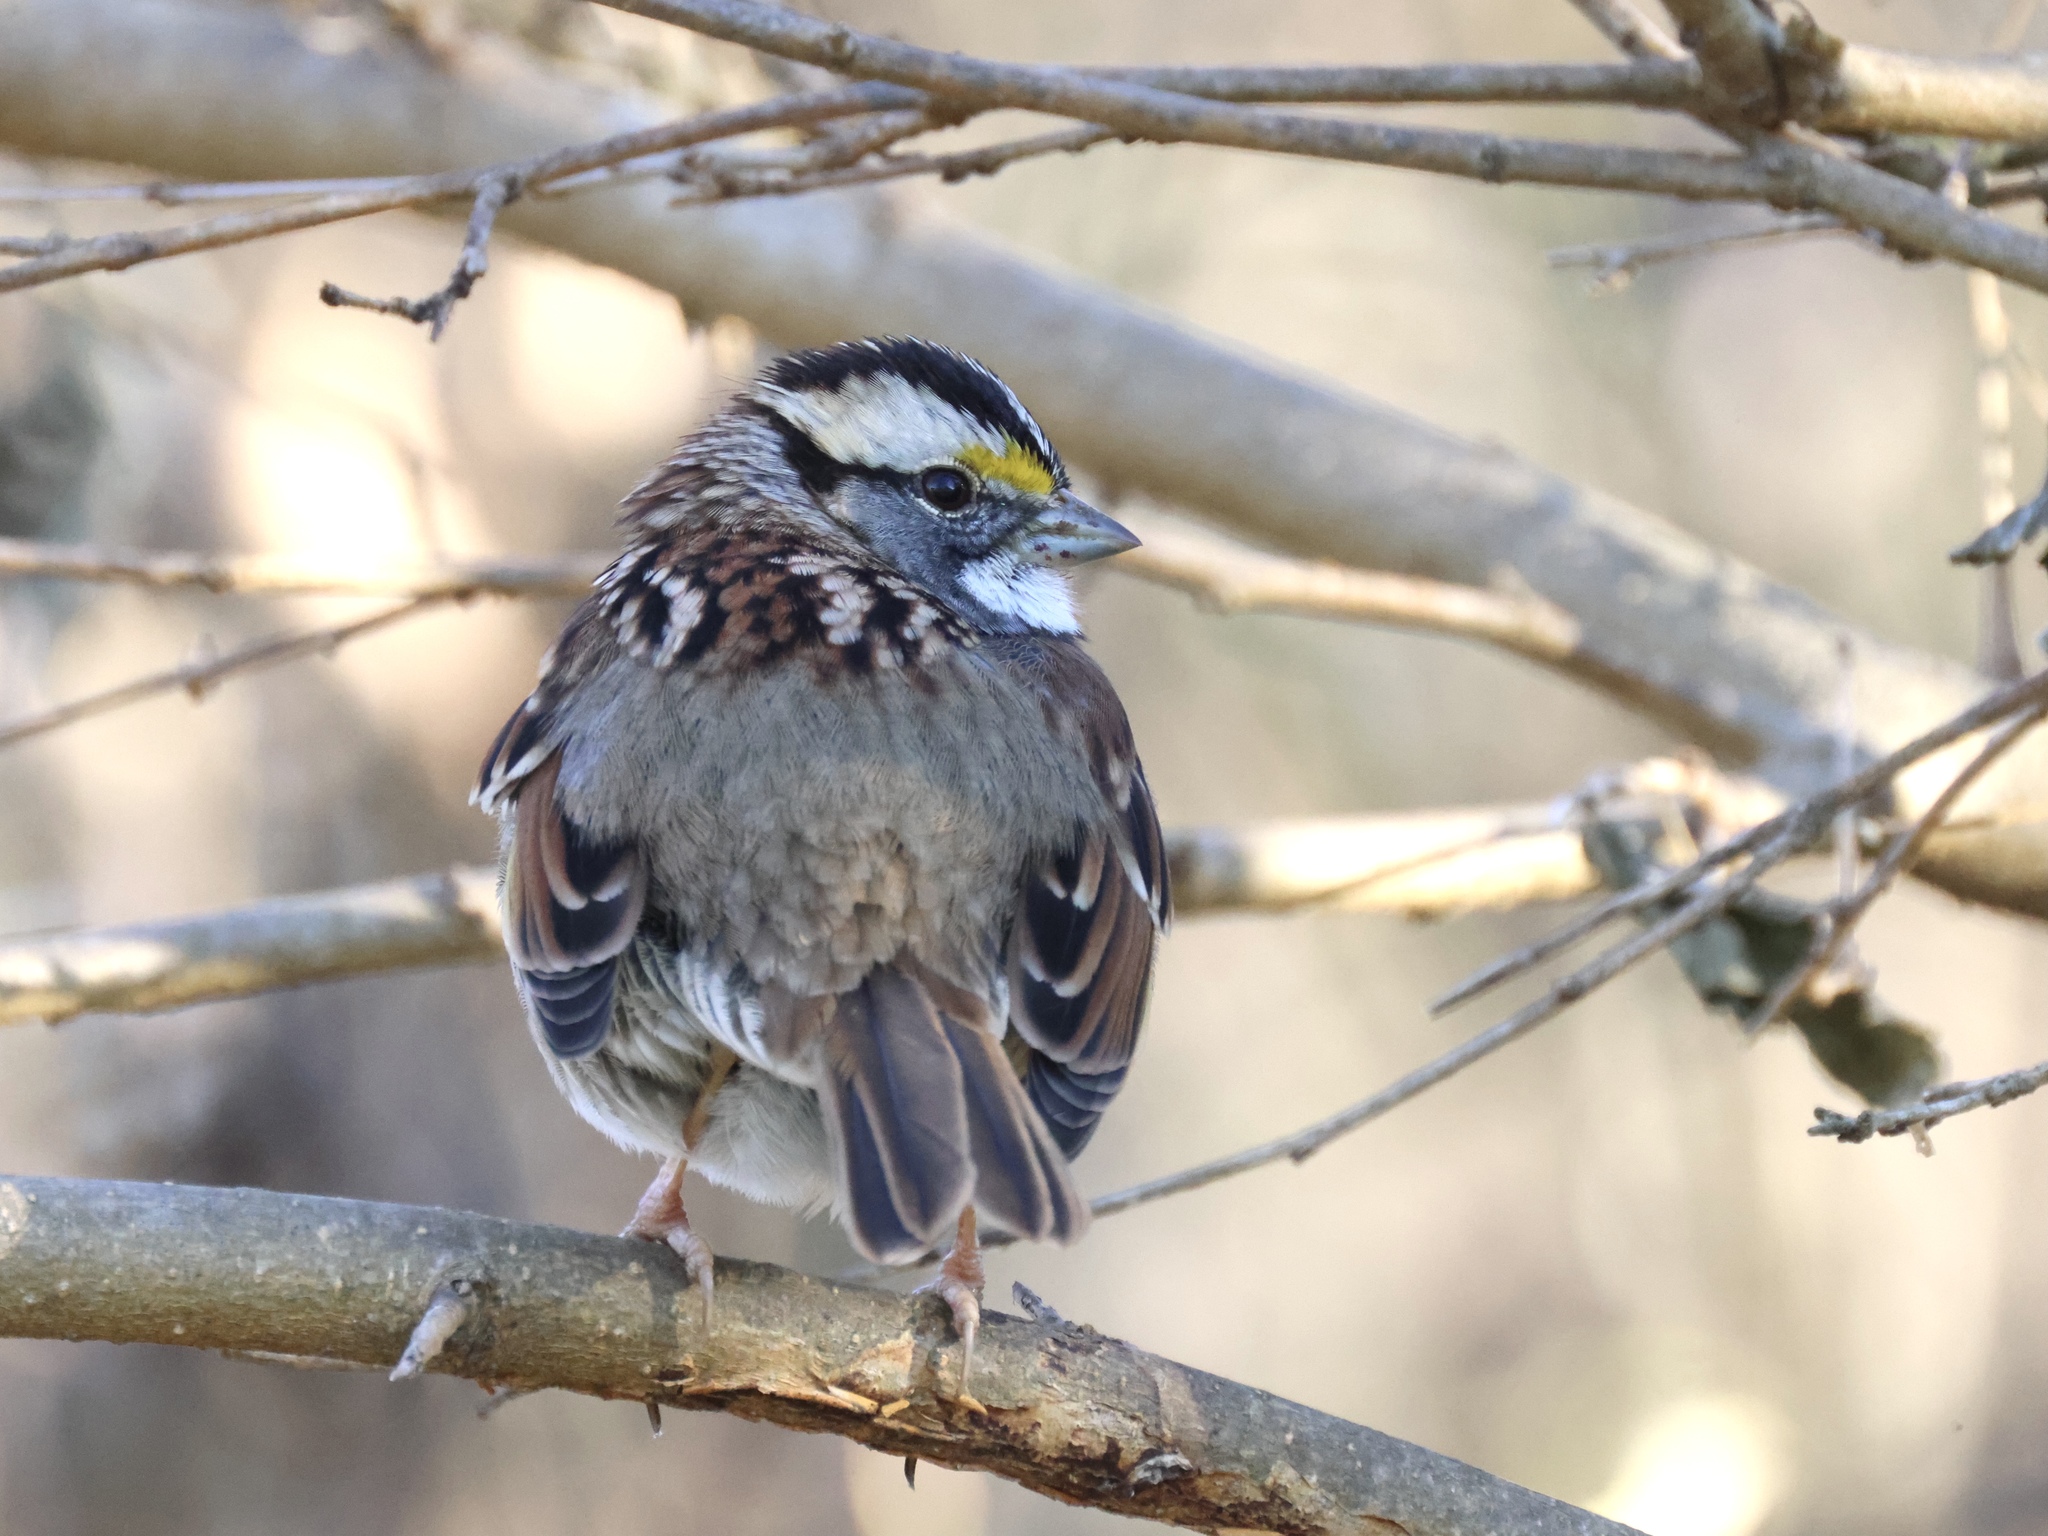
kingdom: Animalia
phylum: Chordata
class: Aves
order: Passeriformes
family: Passerellidae
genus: Zonotrichia
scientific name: Zonotrichia albicollis
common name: White-throated sparrow
